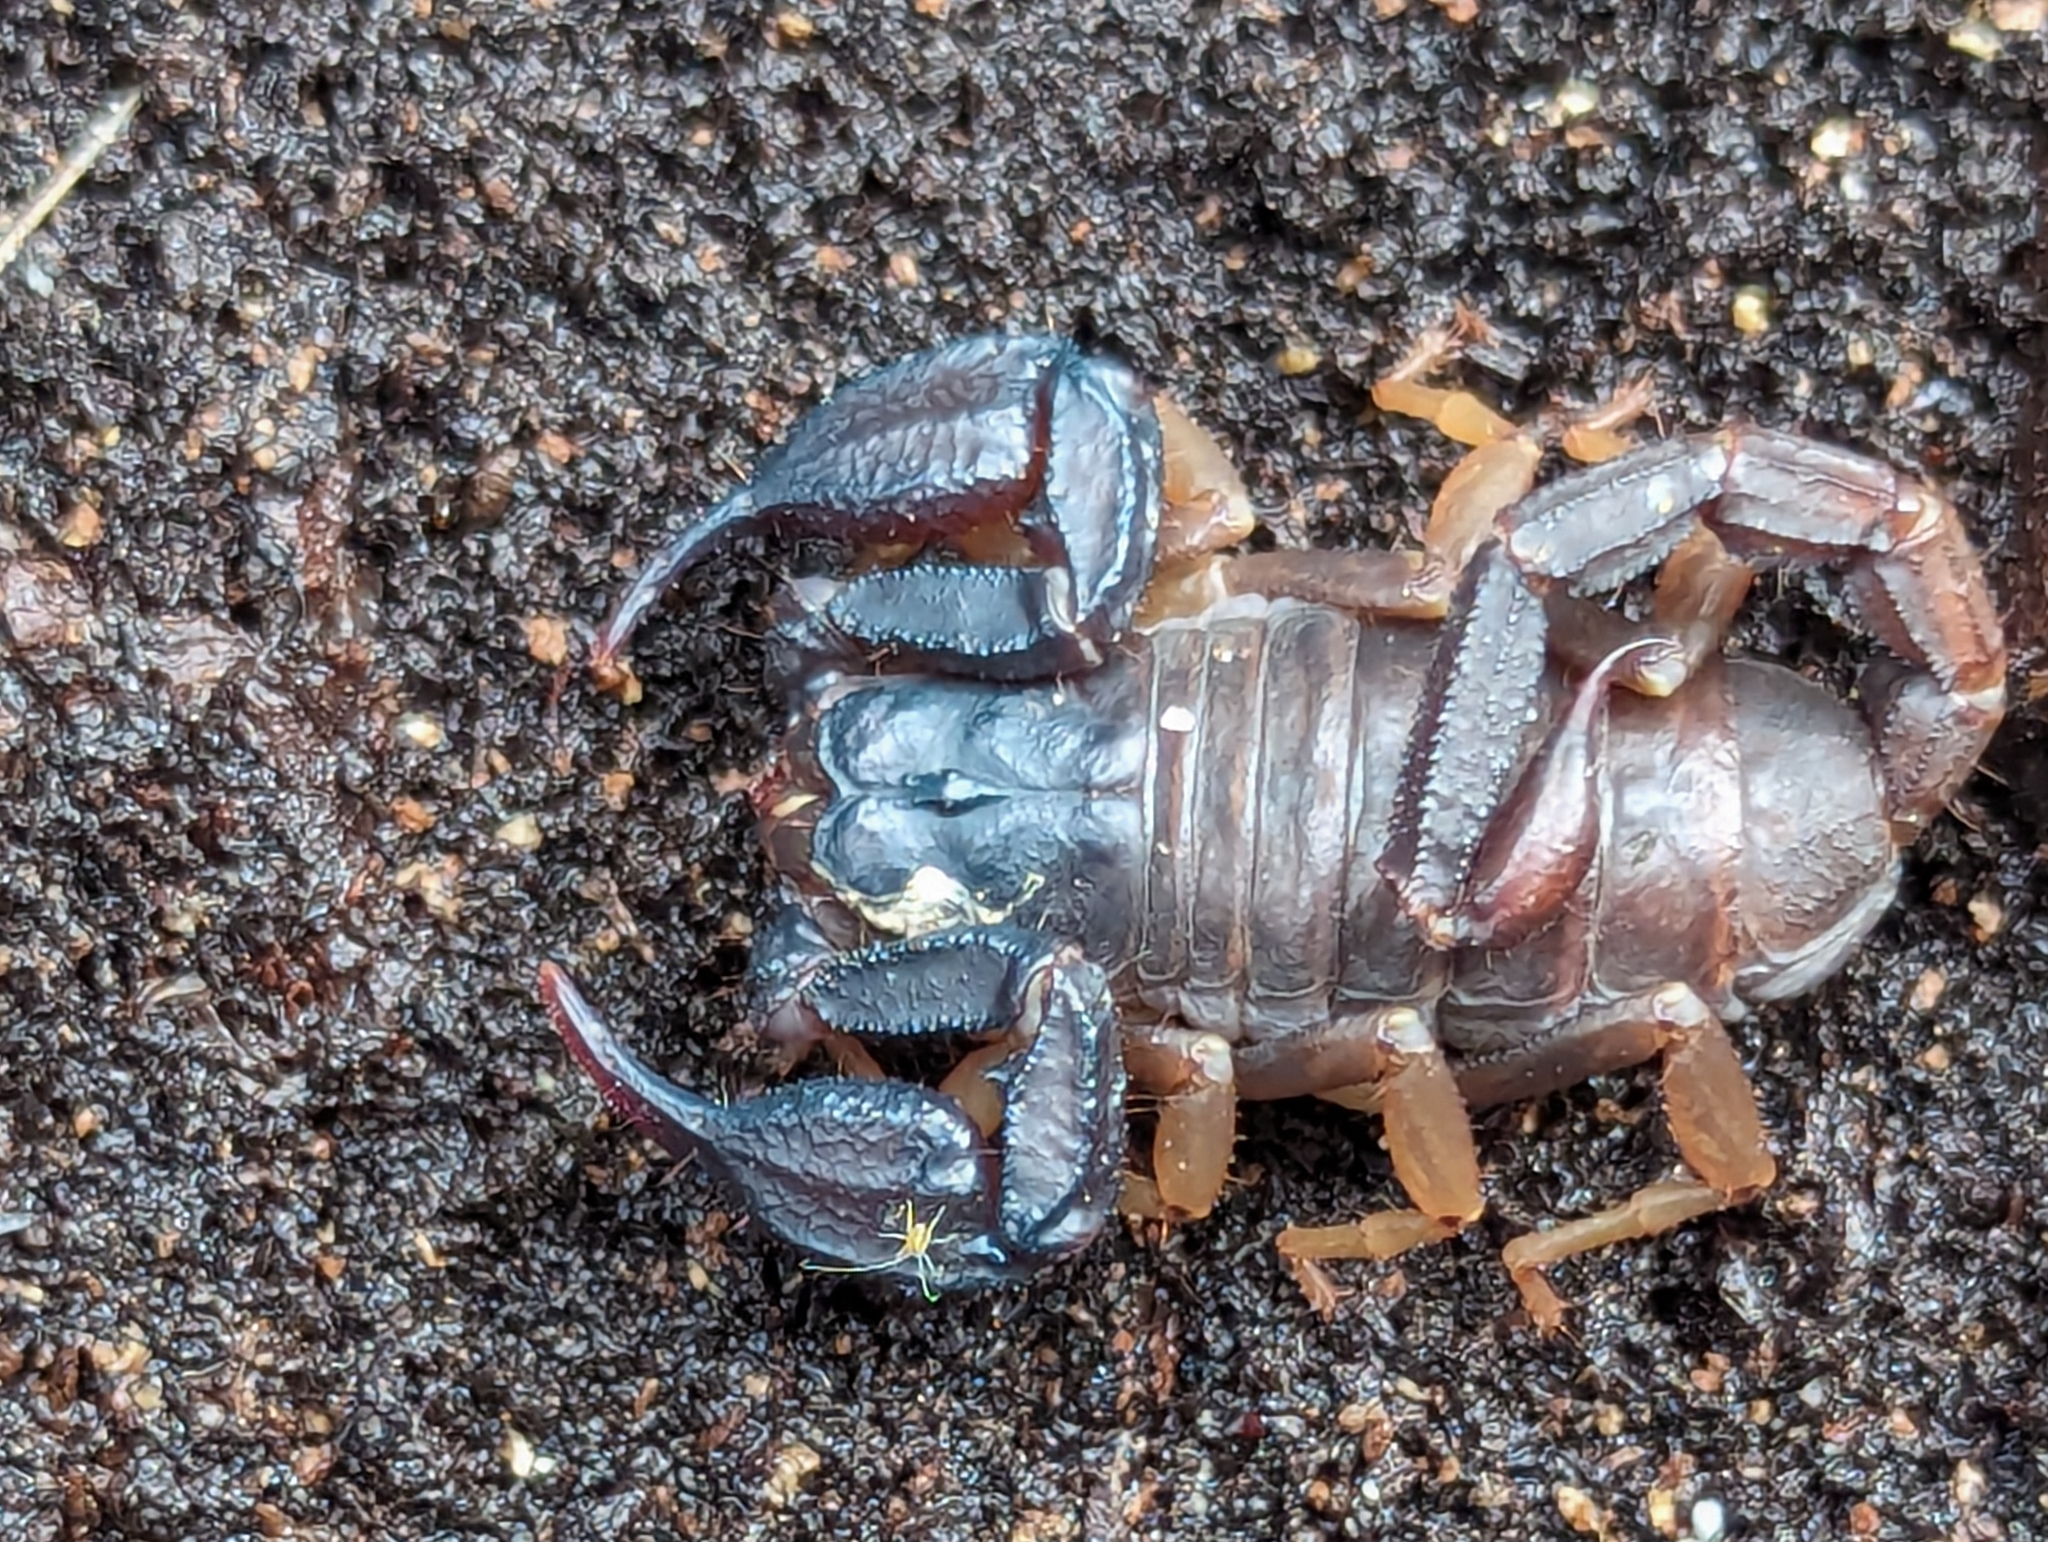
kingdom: Animalia
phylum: Arthropoda
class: Arachnida
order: Scorpiones
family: Chactidae
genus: Uroctonus
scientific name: Uroctonus mordax
